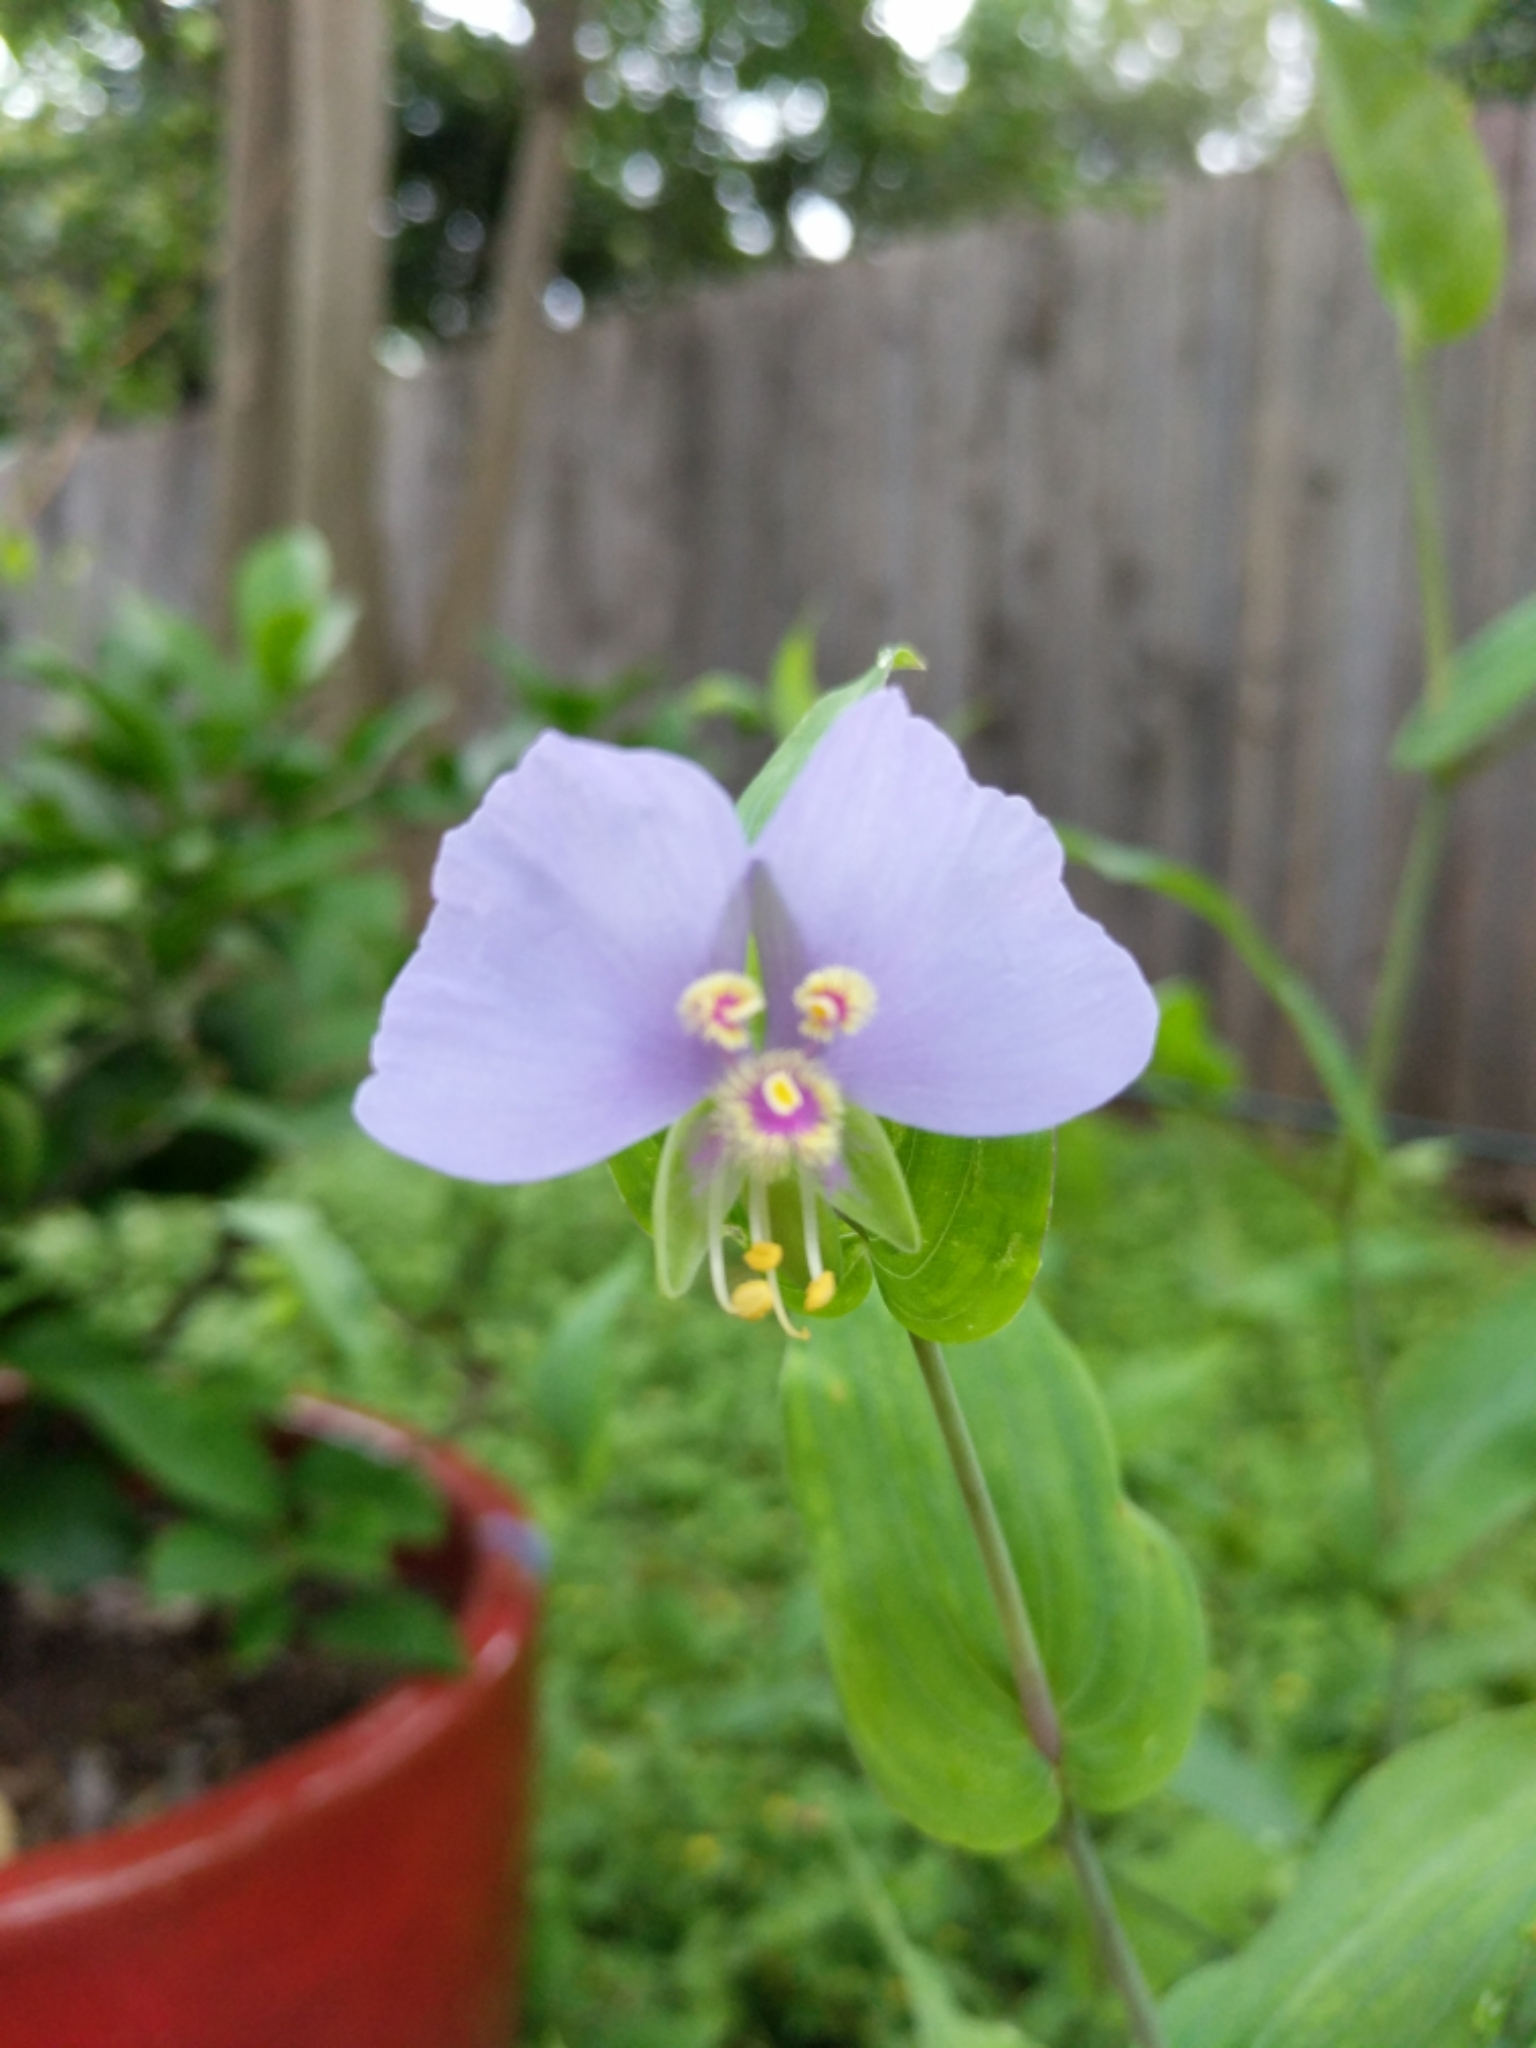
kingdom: Plantae
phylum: Tracheophyta
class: Liliopsida
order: Commelinales
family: Commelinaceae
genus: Tinantia
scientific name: Tinantia anomala
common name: False dayflower
